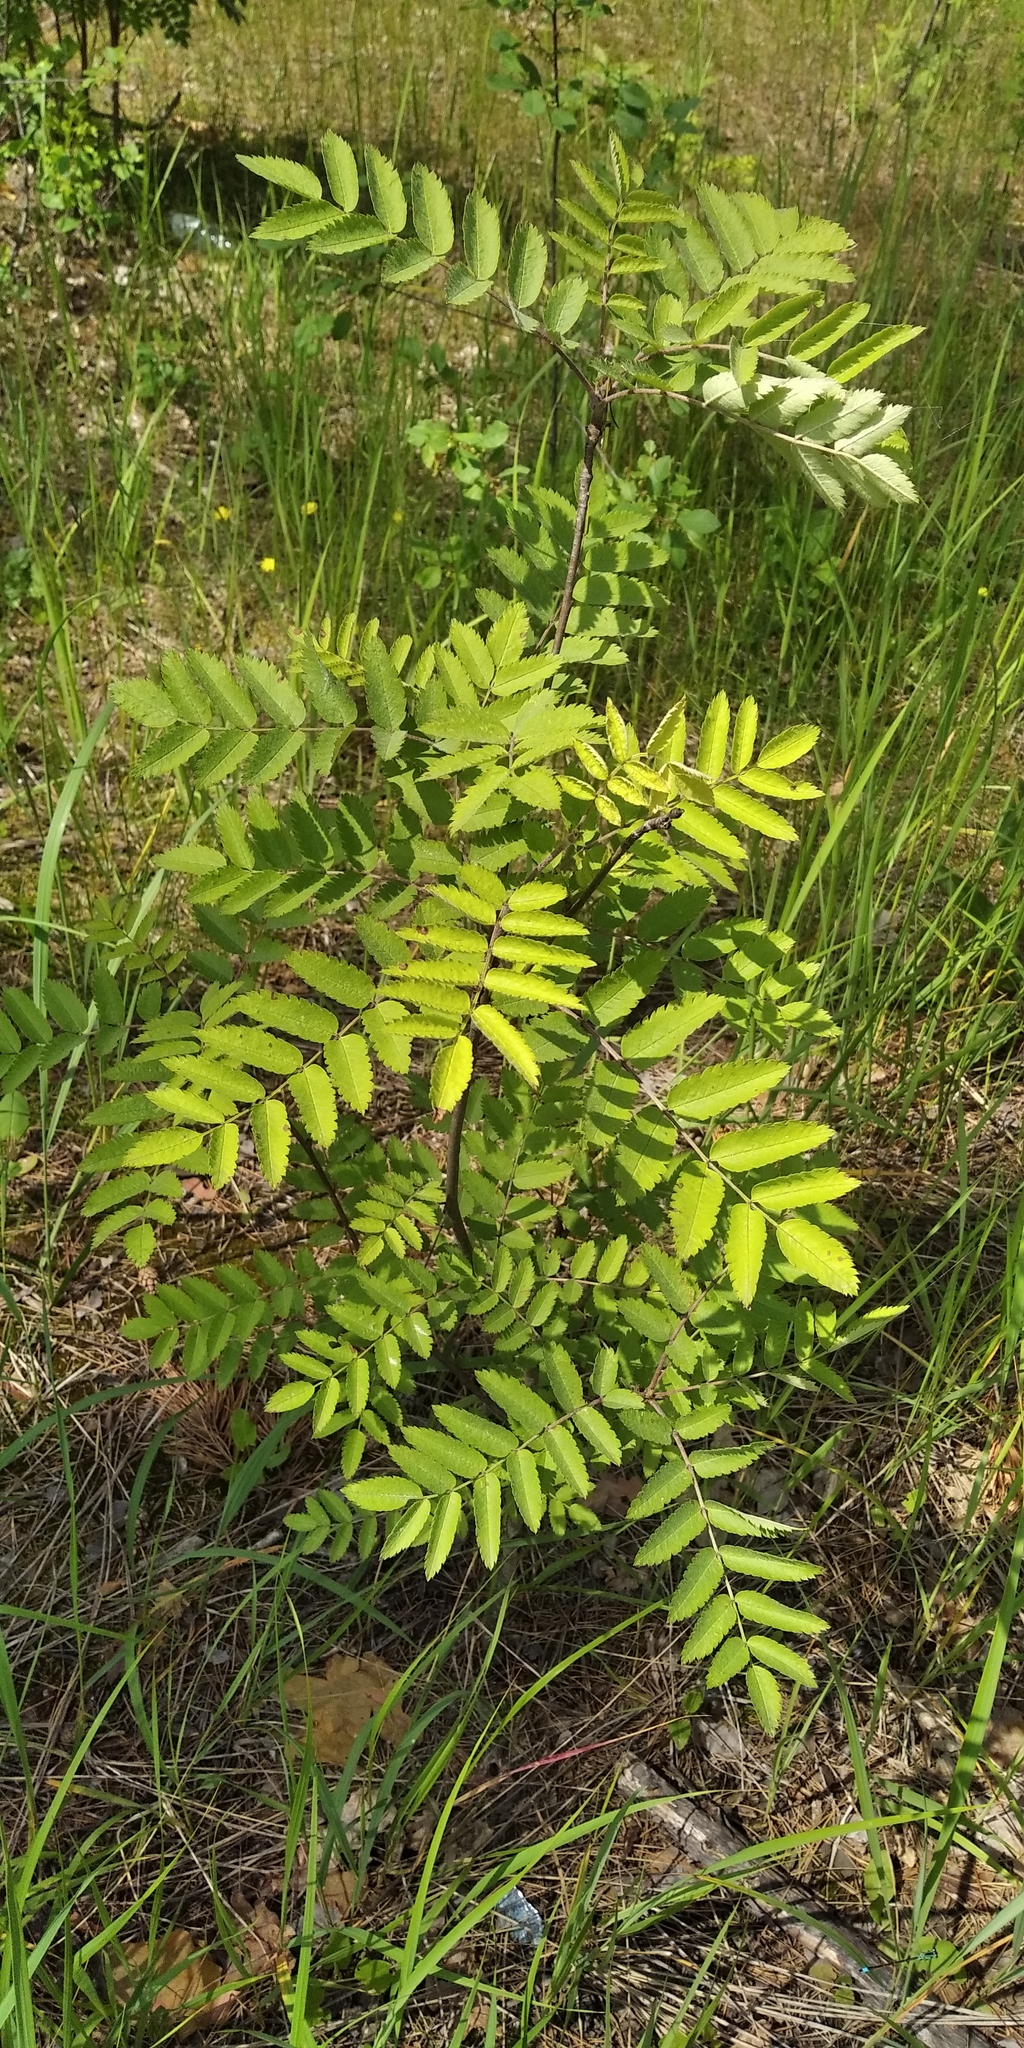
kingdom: Plantae
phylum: Tracheophyta
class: Magnoliopsida
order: Rosales
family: Rosaceae
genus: Sorbus
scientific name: Sorbus aucuparia
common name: Rowan
